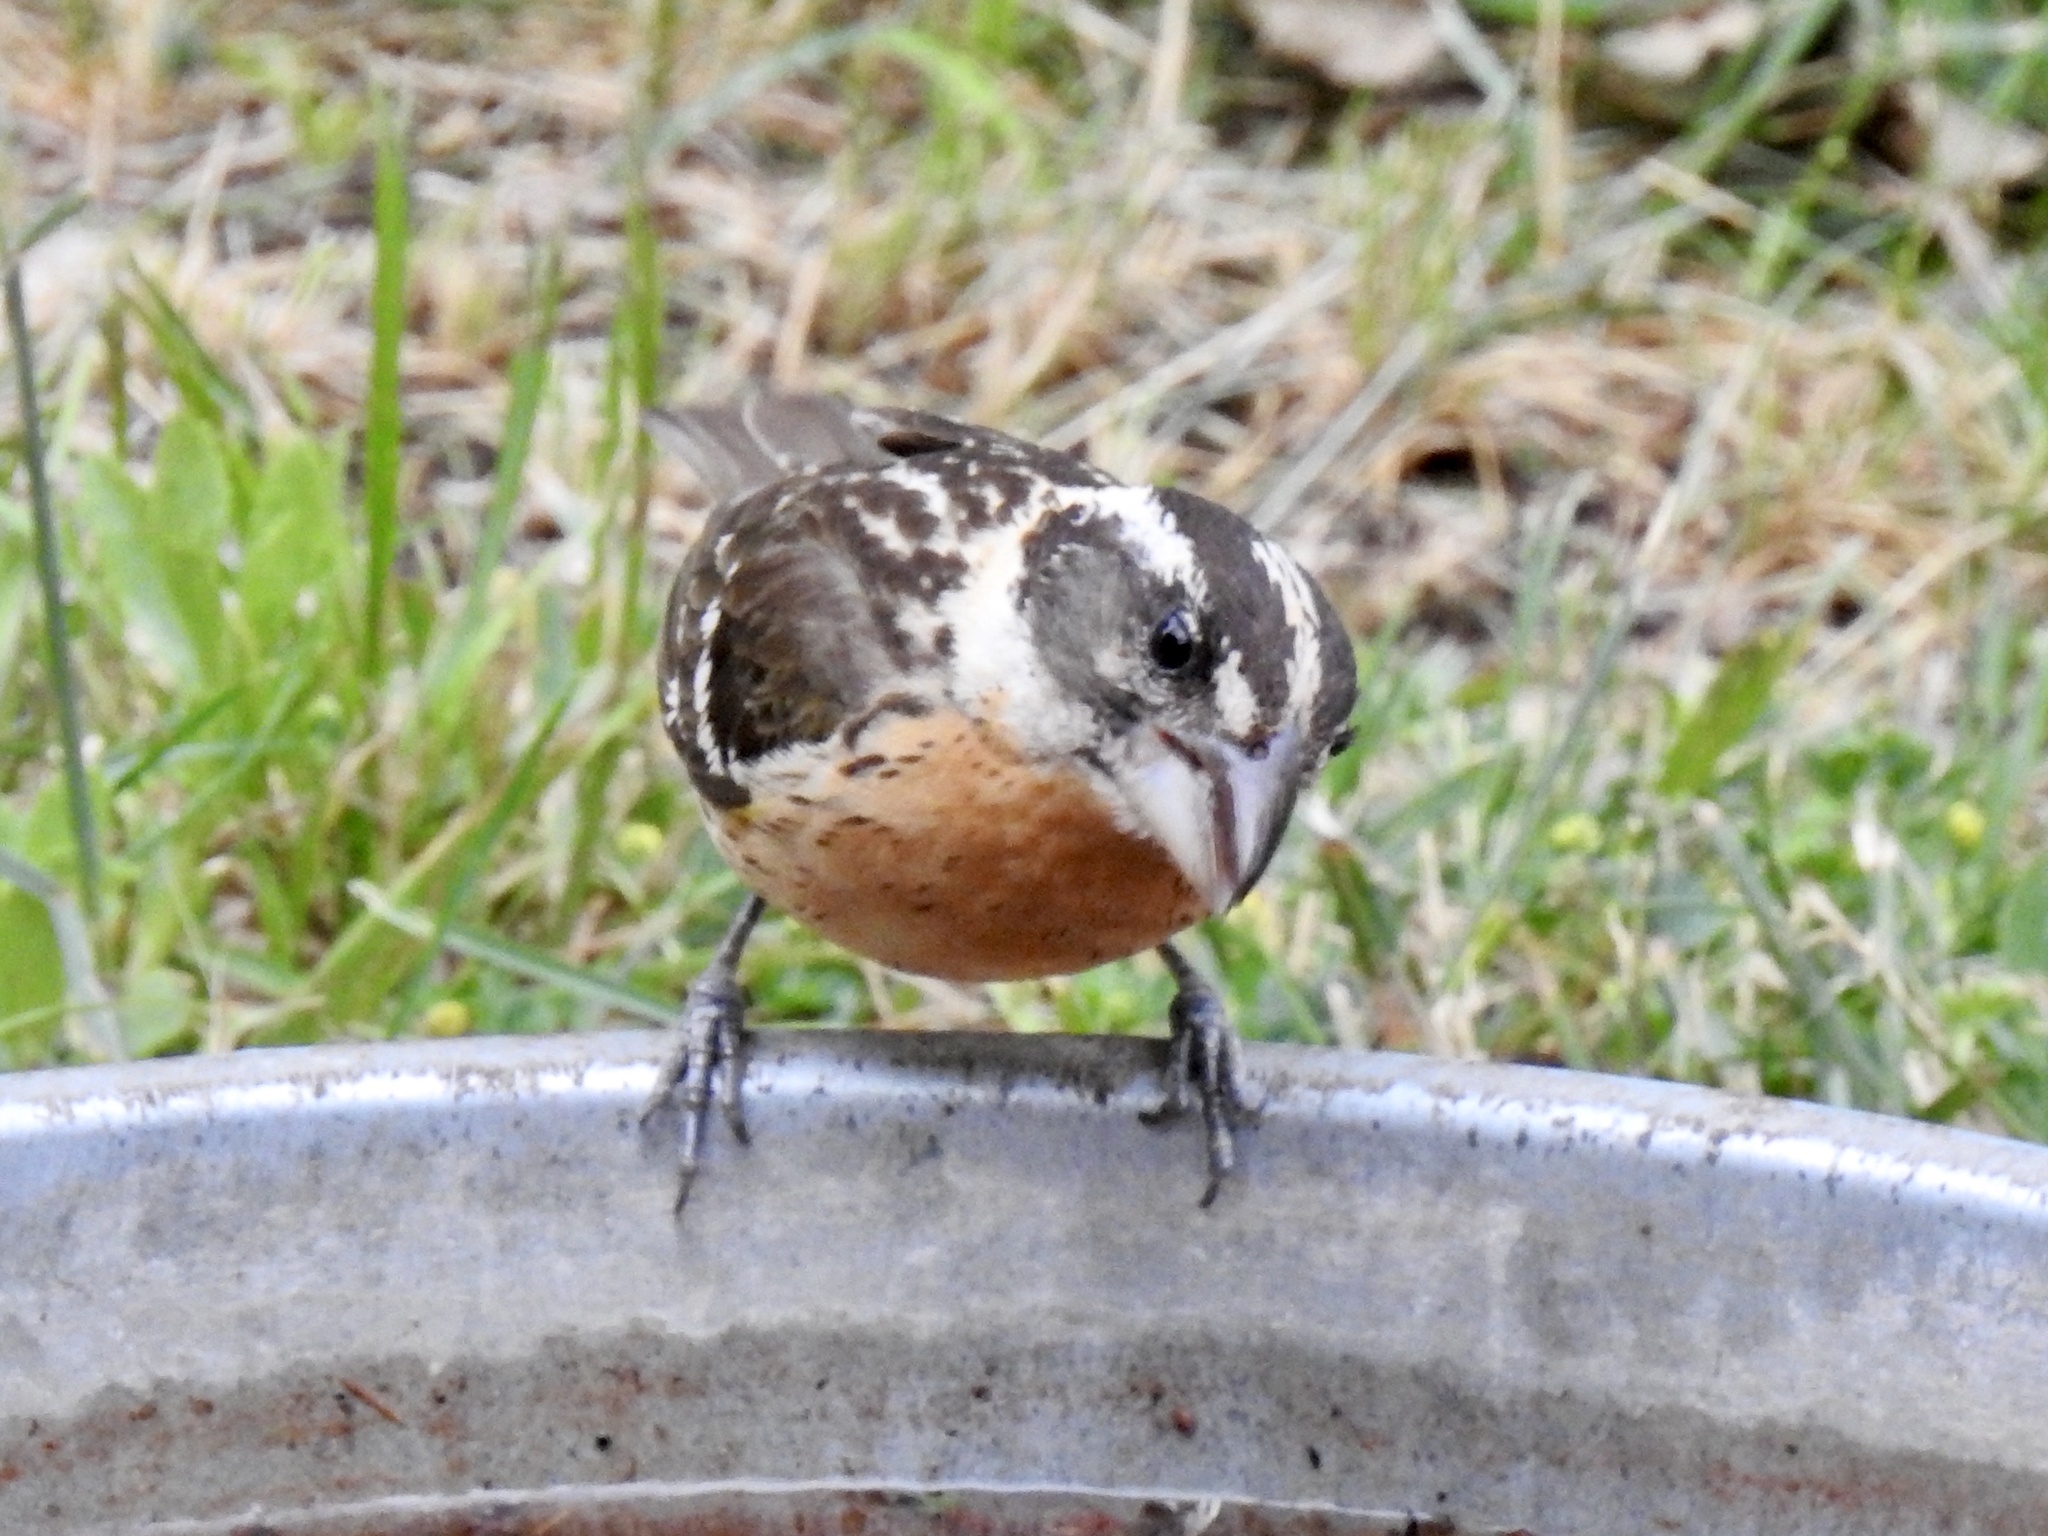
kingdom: Animalia
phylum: Chordata
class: Aves
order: Passeriformes
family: Cardinalidae
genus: Pheucticus
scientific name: Pheucticus melanocephalus
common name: Black-headed grosbeak
